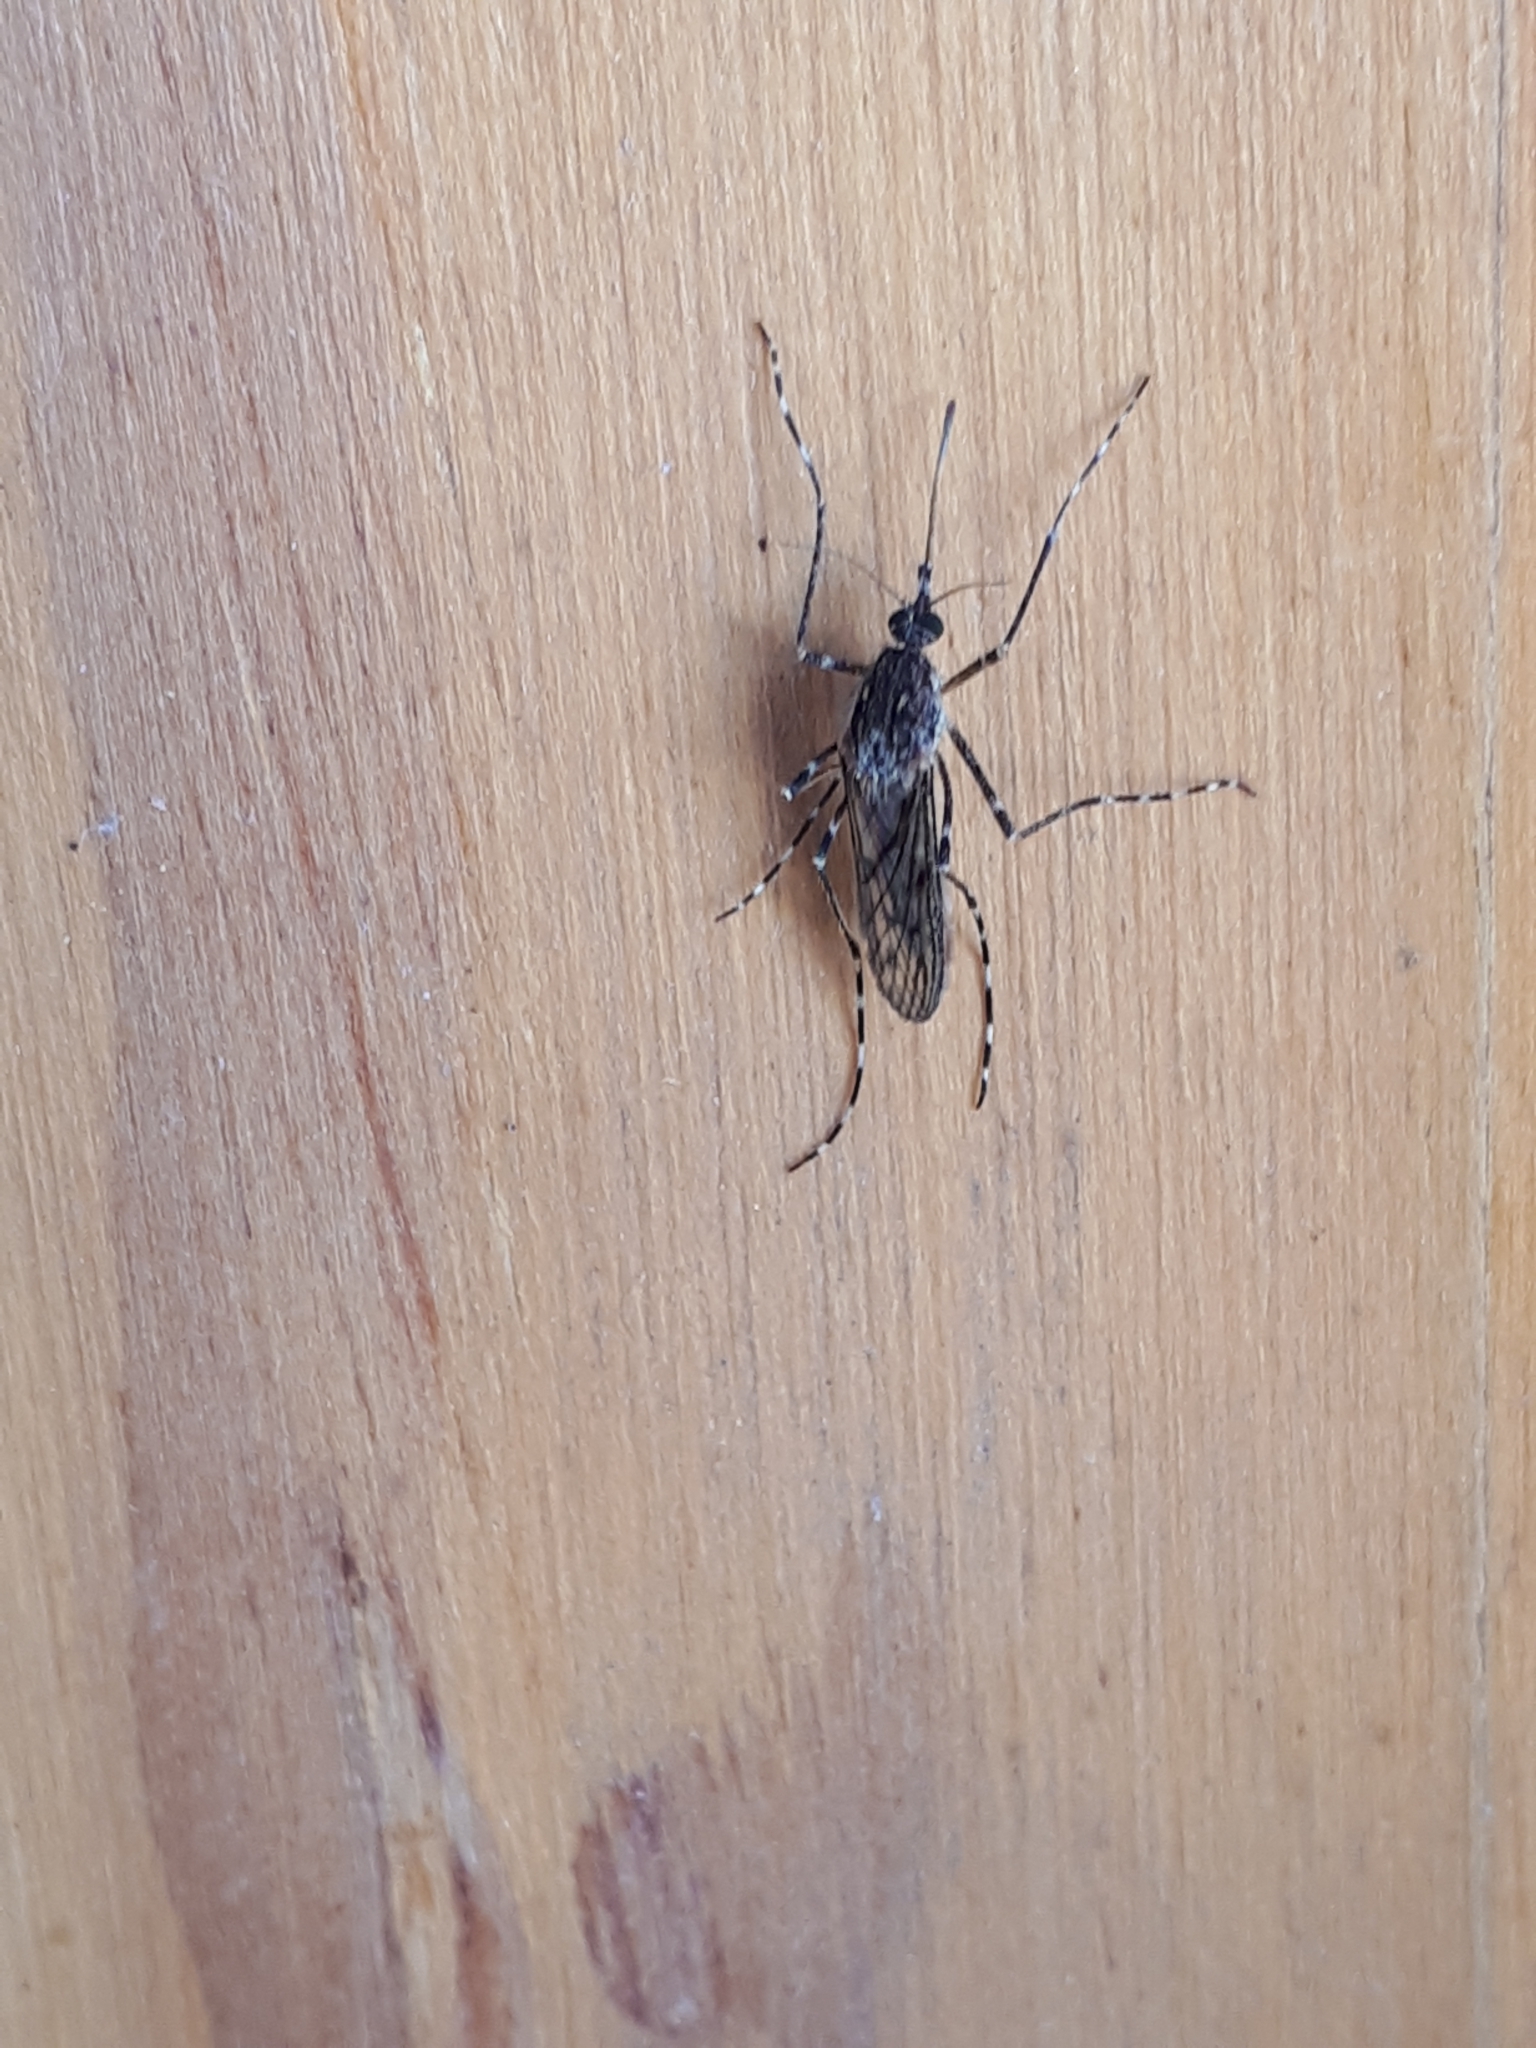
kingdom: Animalia
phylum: Arthropoda
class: Insecta
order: Diptera
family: Culicidae
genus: Culiseta
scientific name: Culiseta annulata
